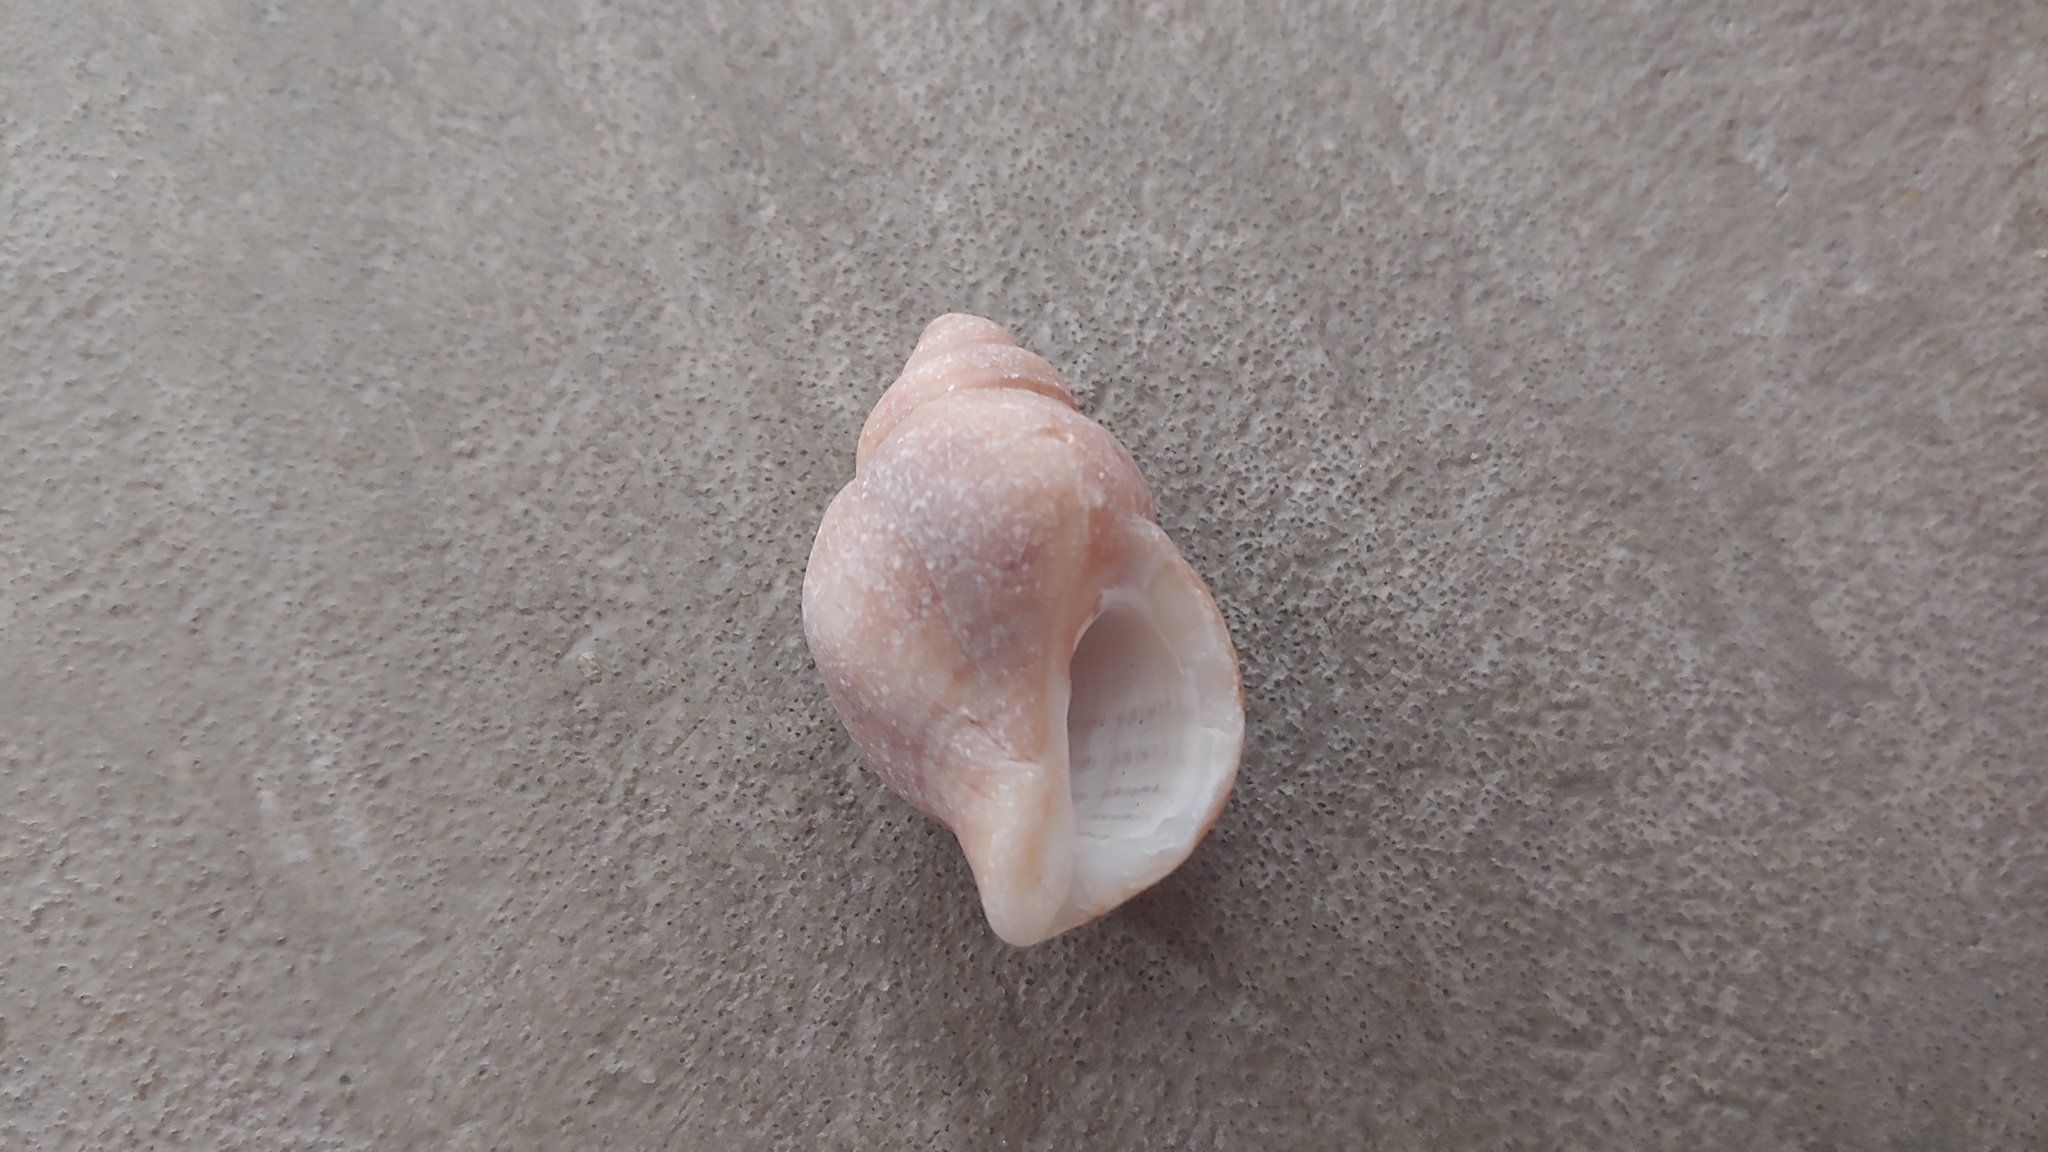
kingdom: Animalia
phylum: Mollusca
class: Gastropoda
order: Neogastropoda
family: Muricidae
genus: Nucella
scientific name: Nucella lamellosa
